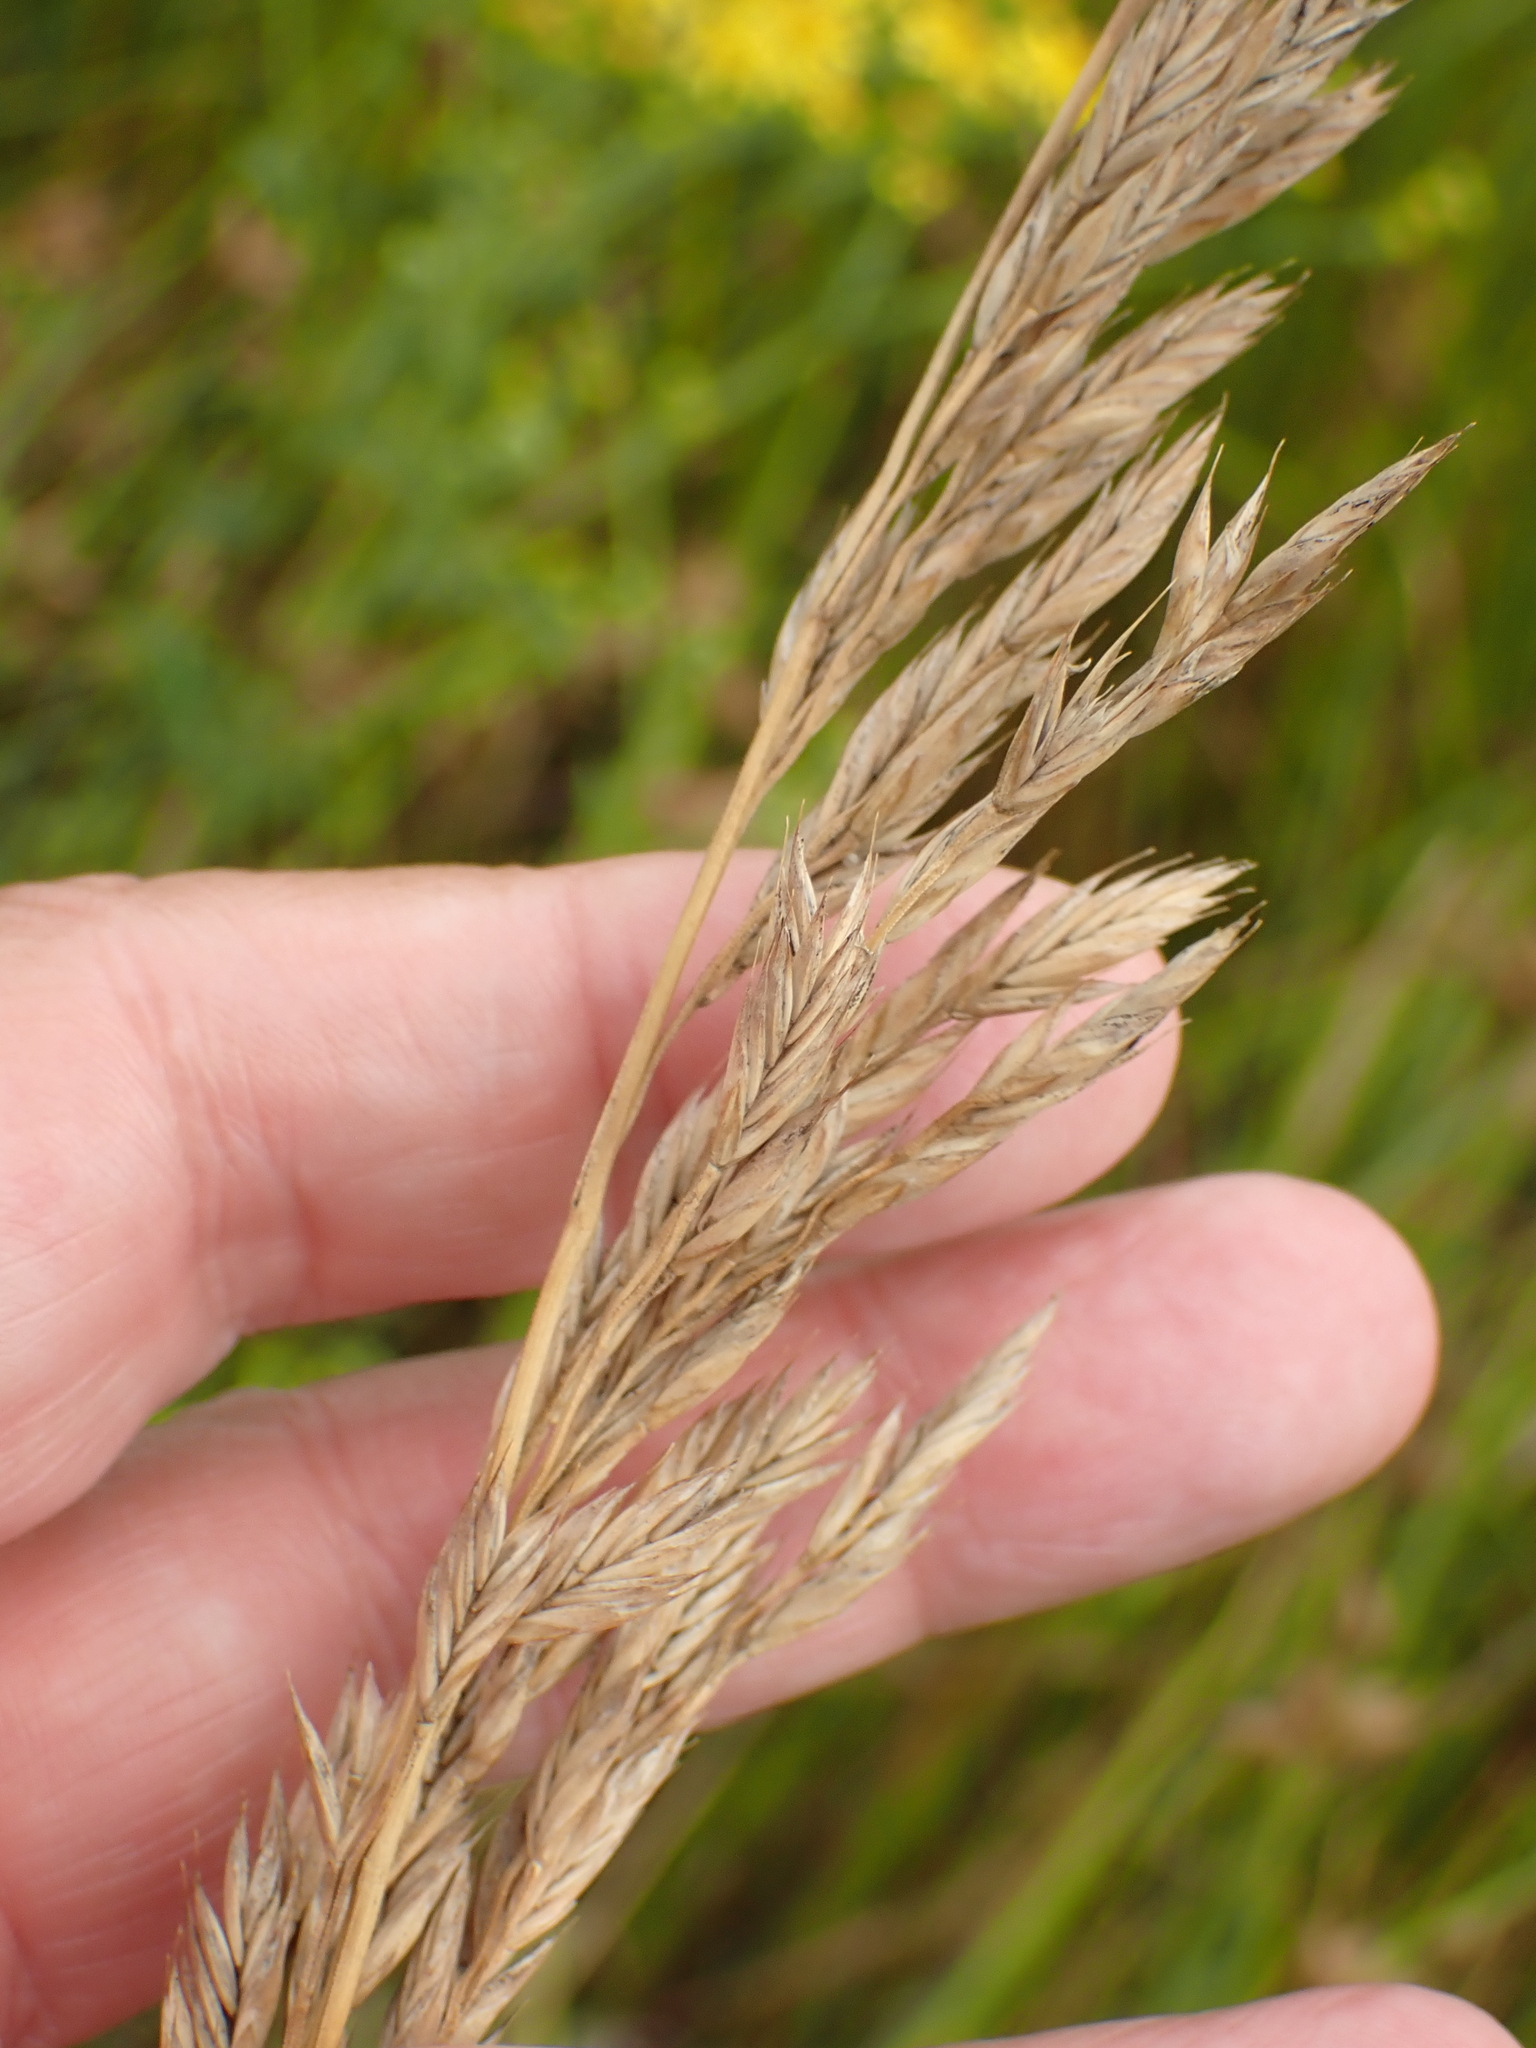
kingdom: Plantae
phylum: Tracheophyta
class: Liliopsida
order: Poales
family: Poaceae
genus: Lolium
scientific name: Lolium arundinaceum
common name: Reed fescue
